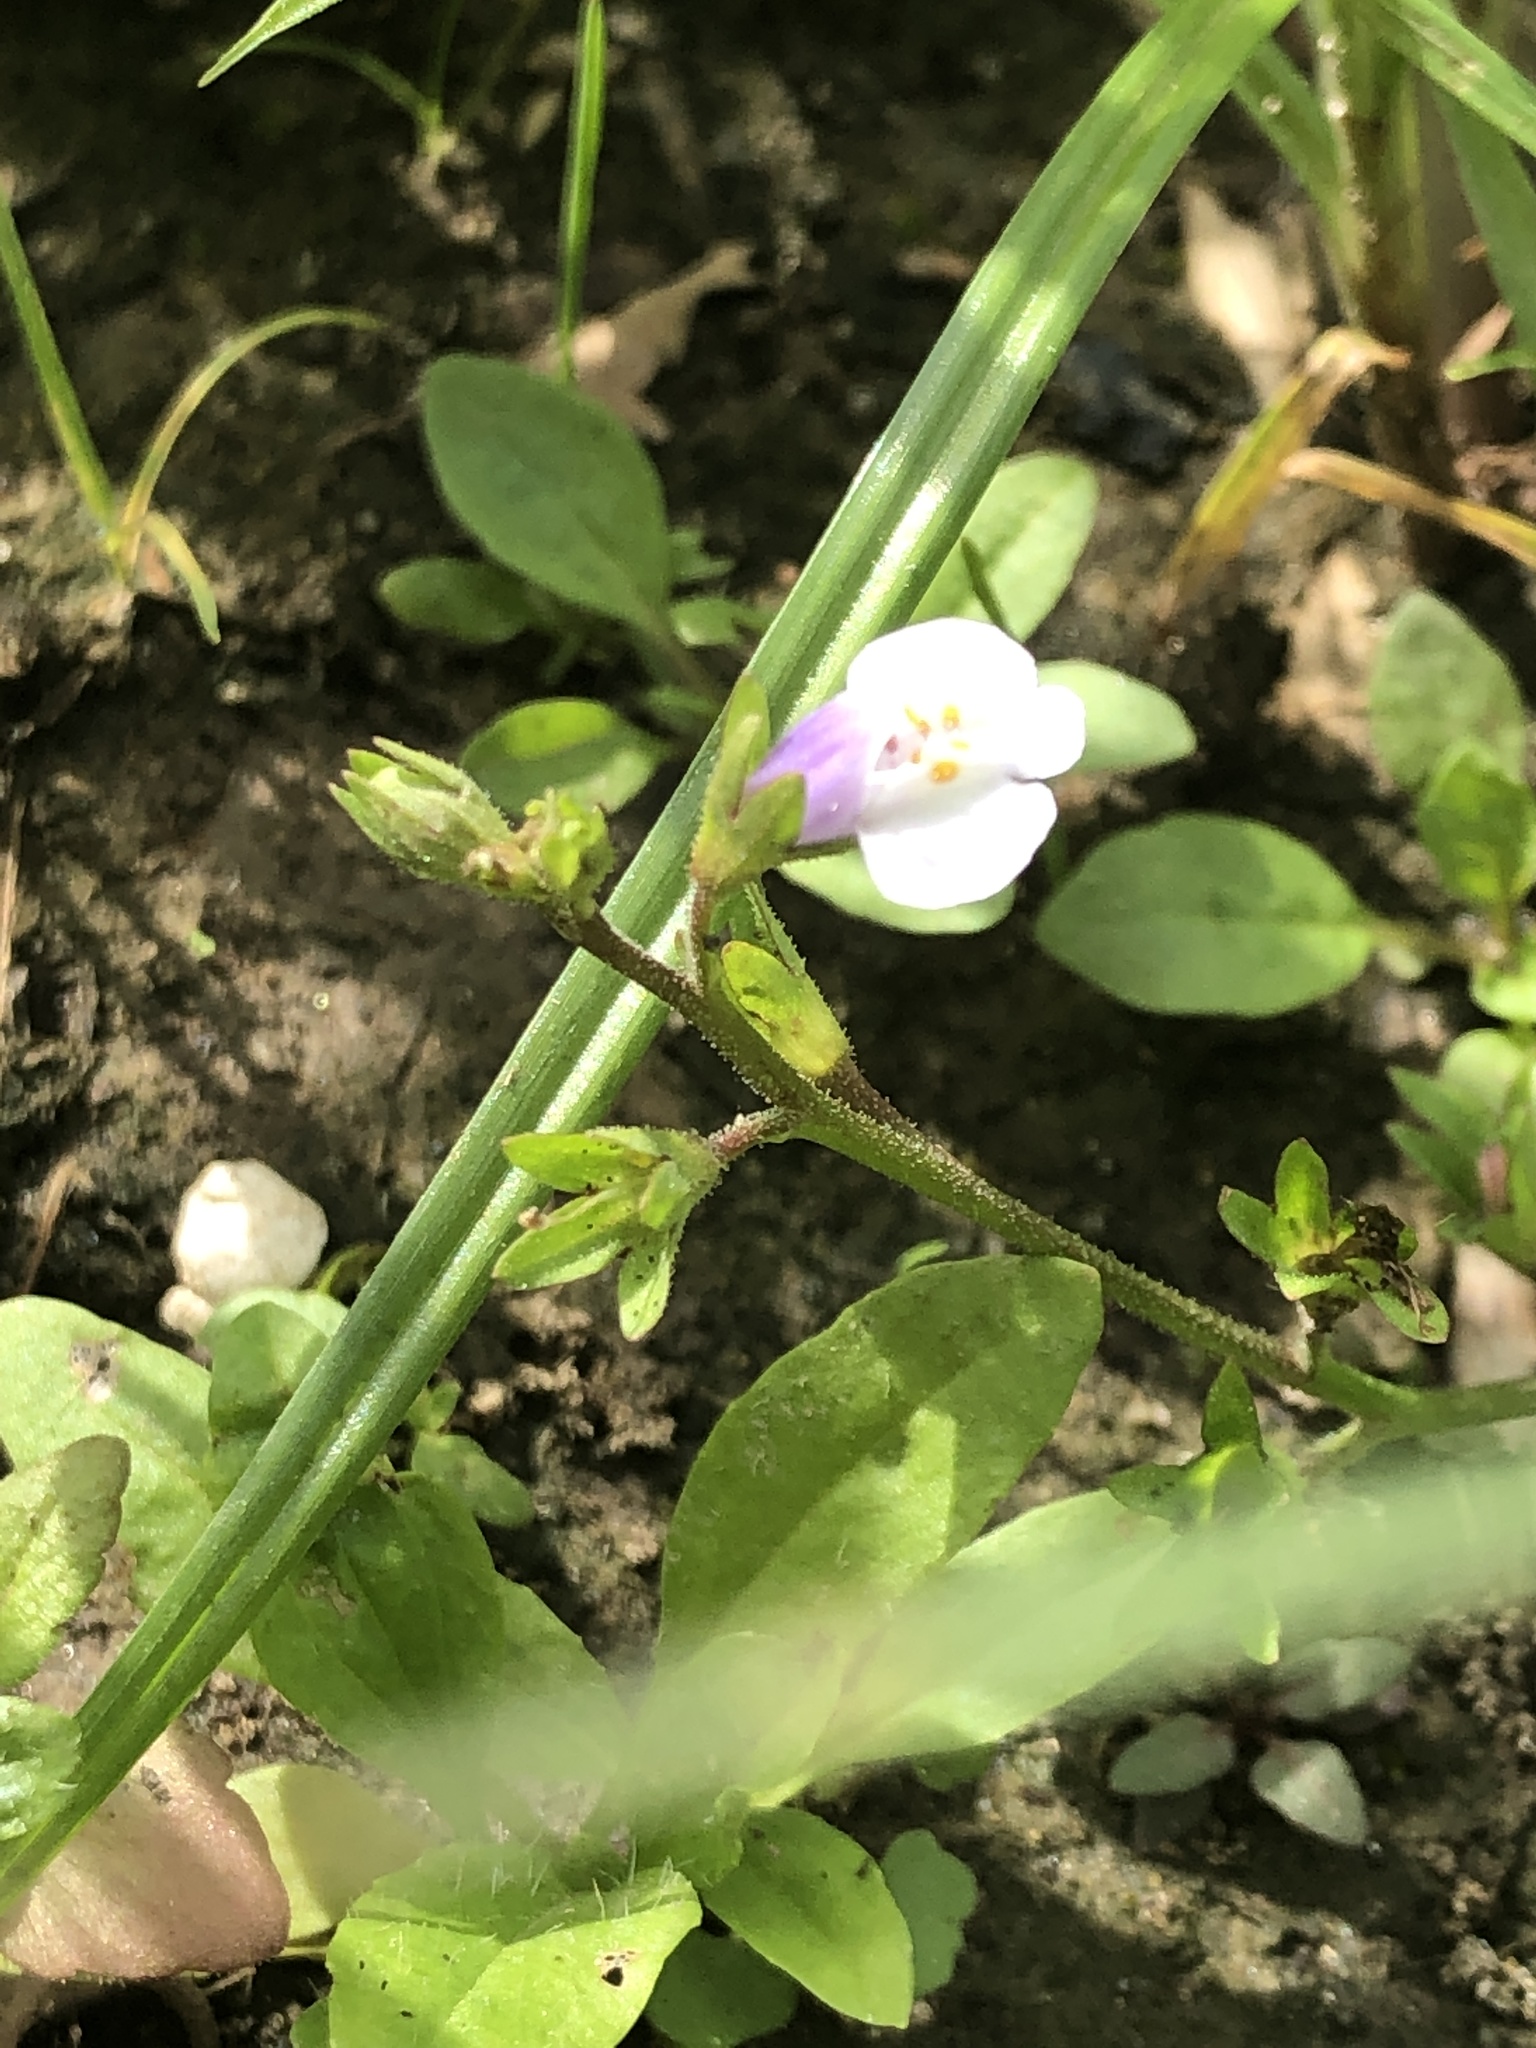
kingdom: Plantae
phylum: Tracheophyta
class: Magnoliopsida
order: Lamiales
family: Mazaceae
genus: Mazus
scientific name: Mazus pumilus
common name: Japanese mazus
